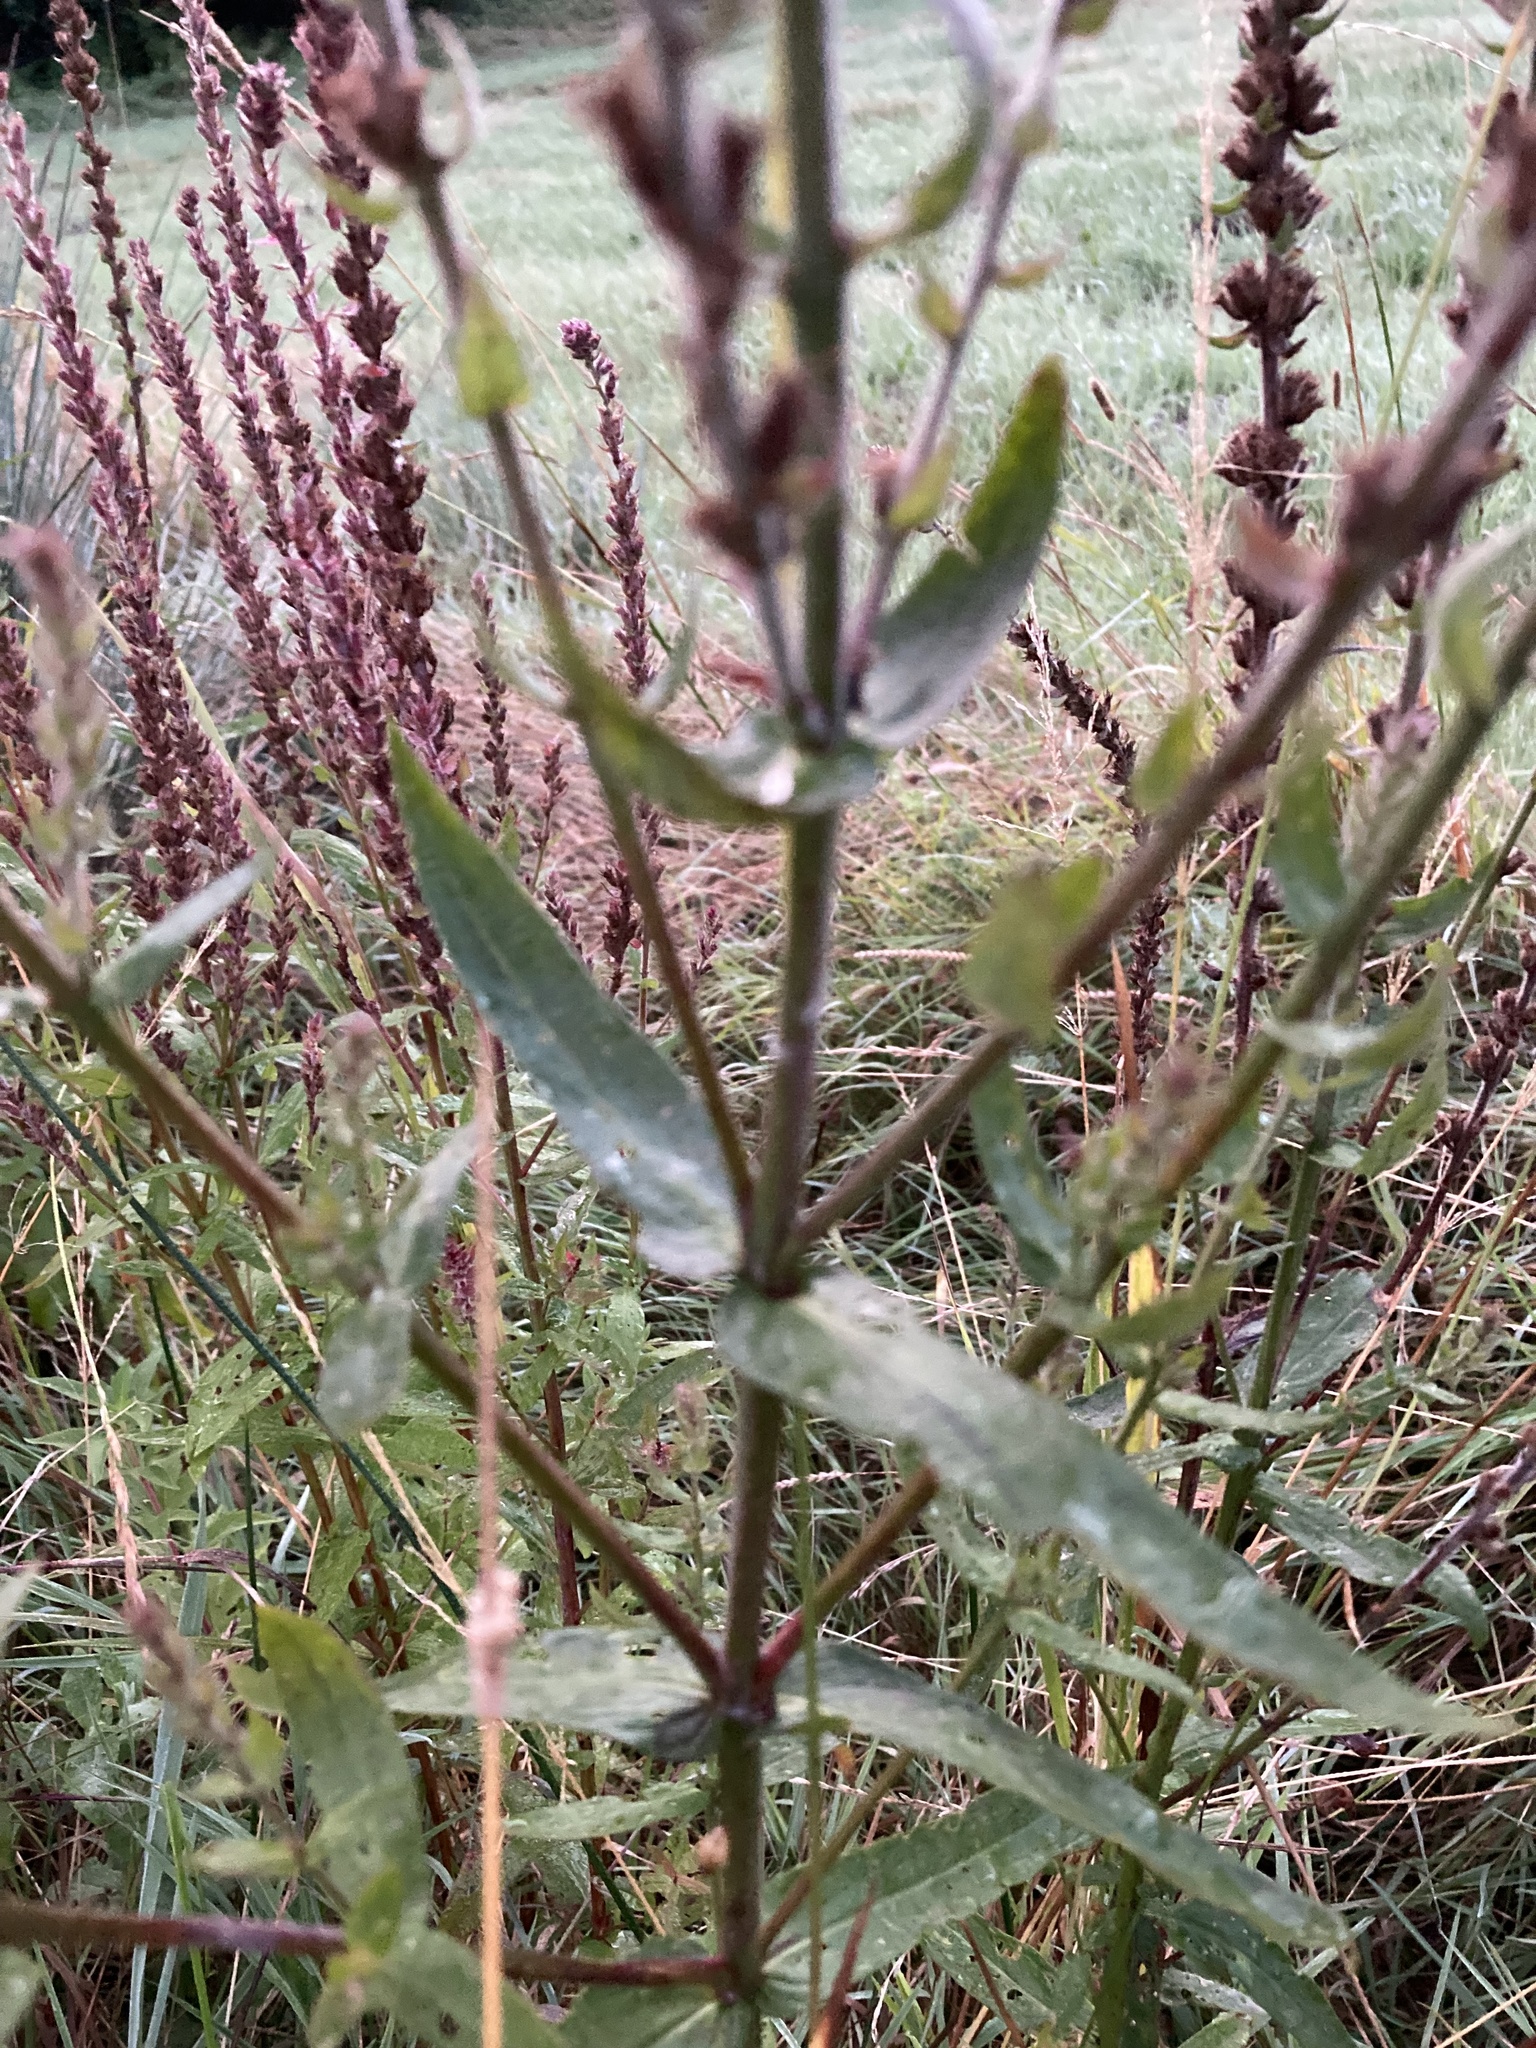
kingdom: Plantae
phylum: Tracheophyta
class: Magnoliopsida
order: Myrtales
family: Lythraceae
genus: Lythrum
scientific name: Lythrum salicaria
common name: Purple loosestrife
